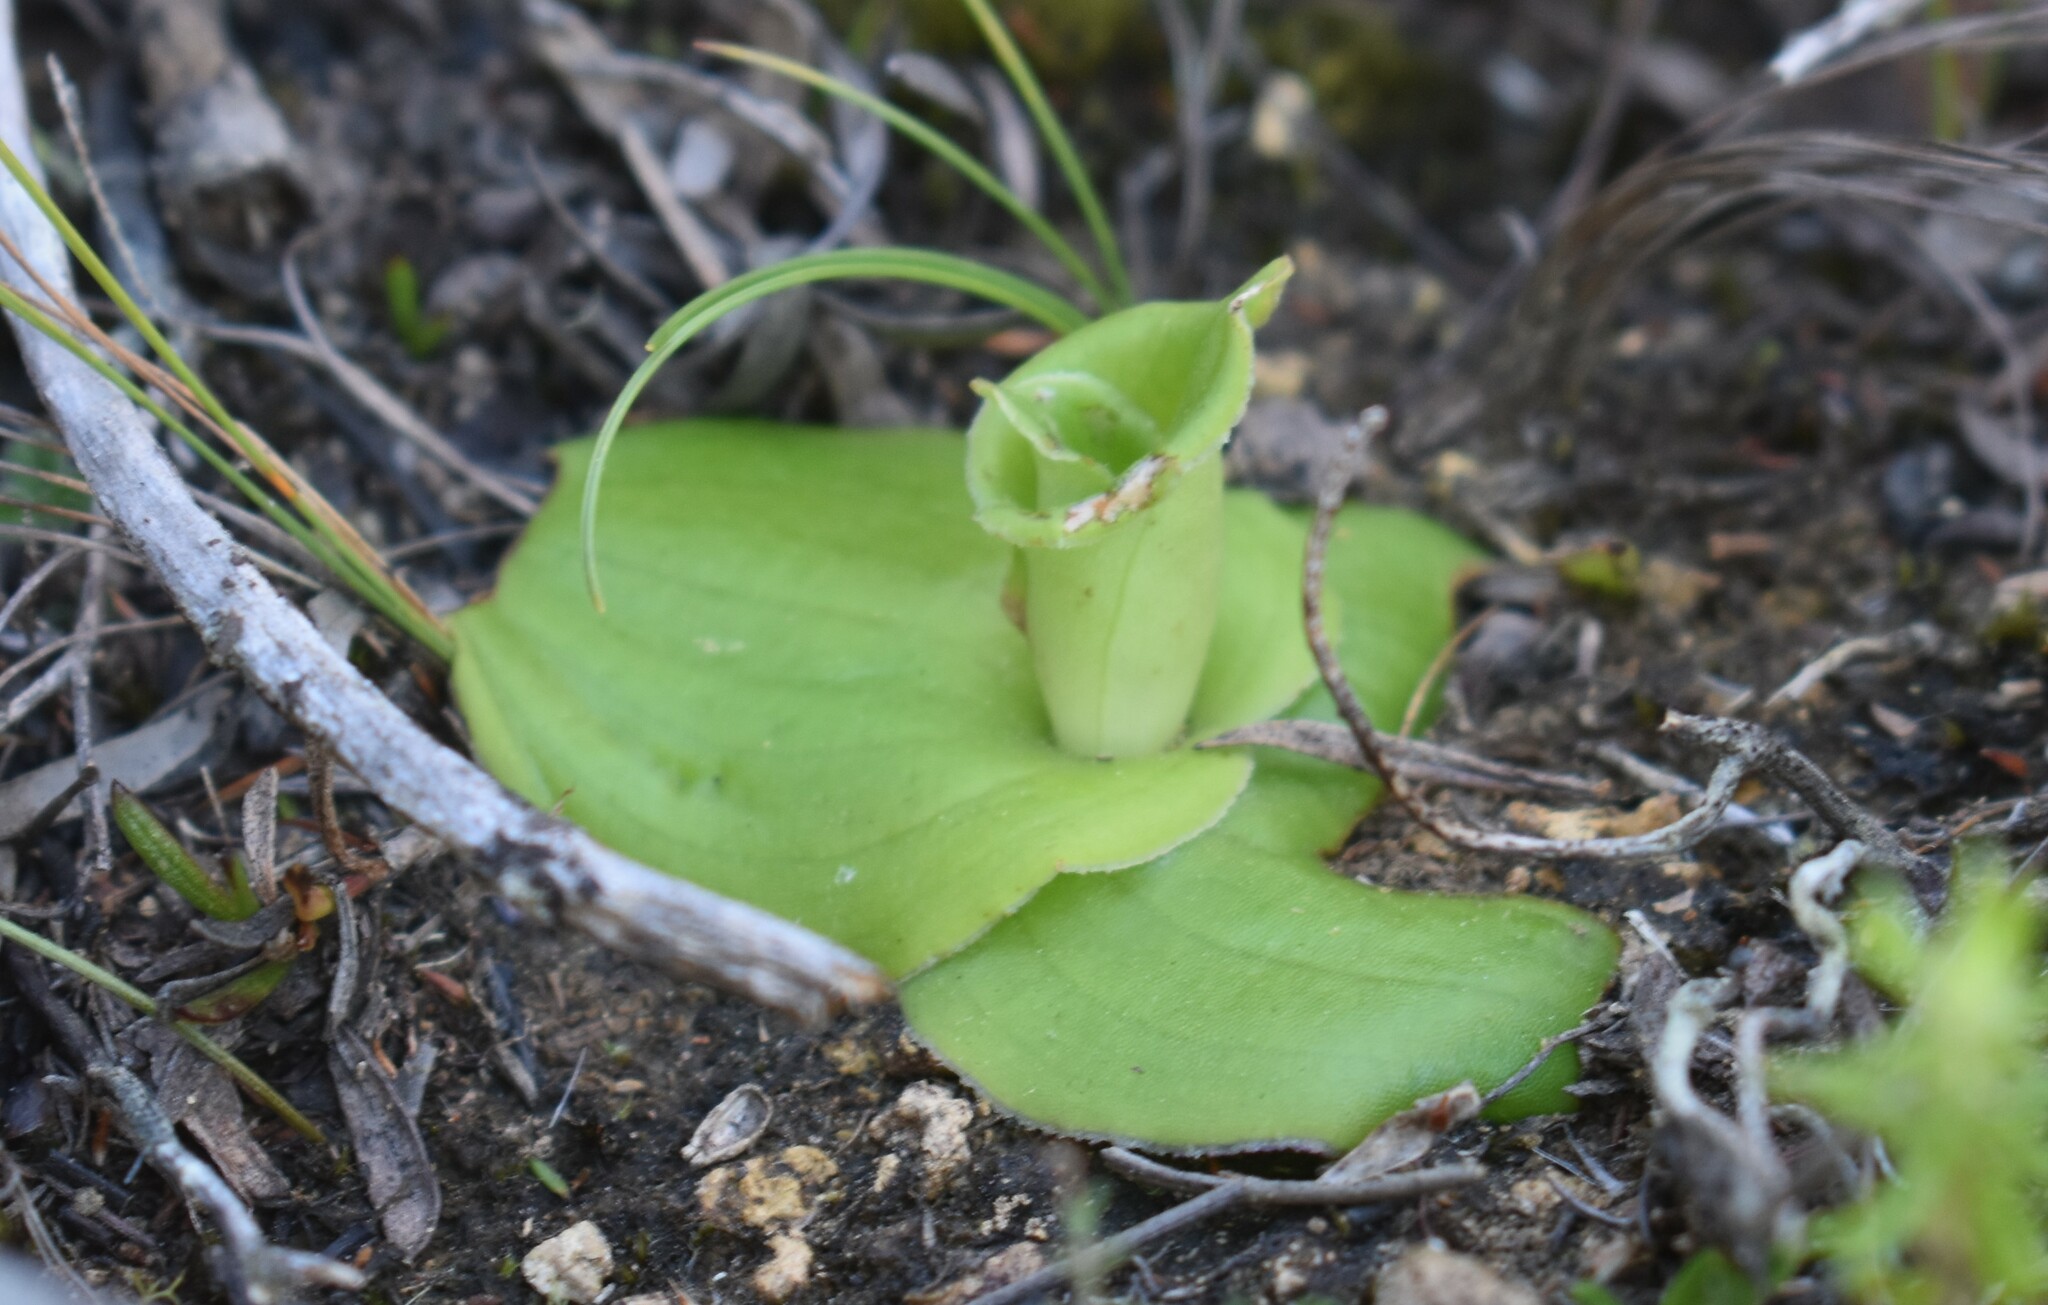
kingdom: Plantae
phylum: Tracheophyta
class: Liliopsida
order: Asparagales
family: Orchidaceae
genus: Satyrium
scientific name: Satyrium acuminatum
